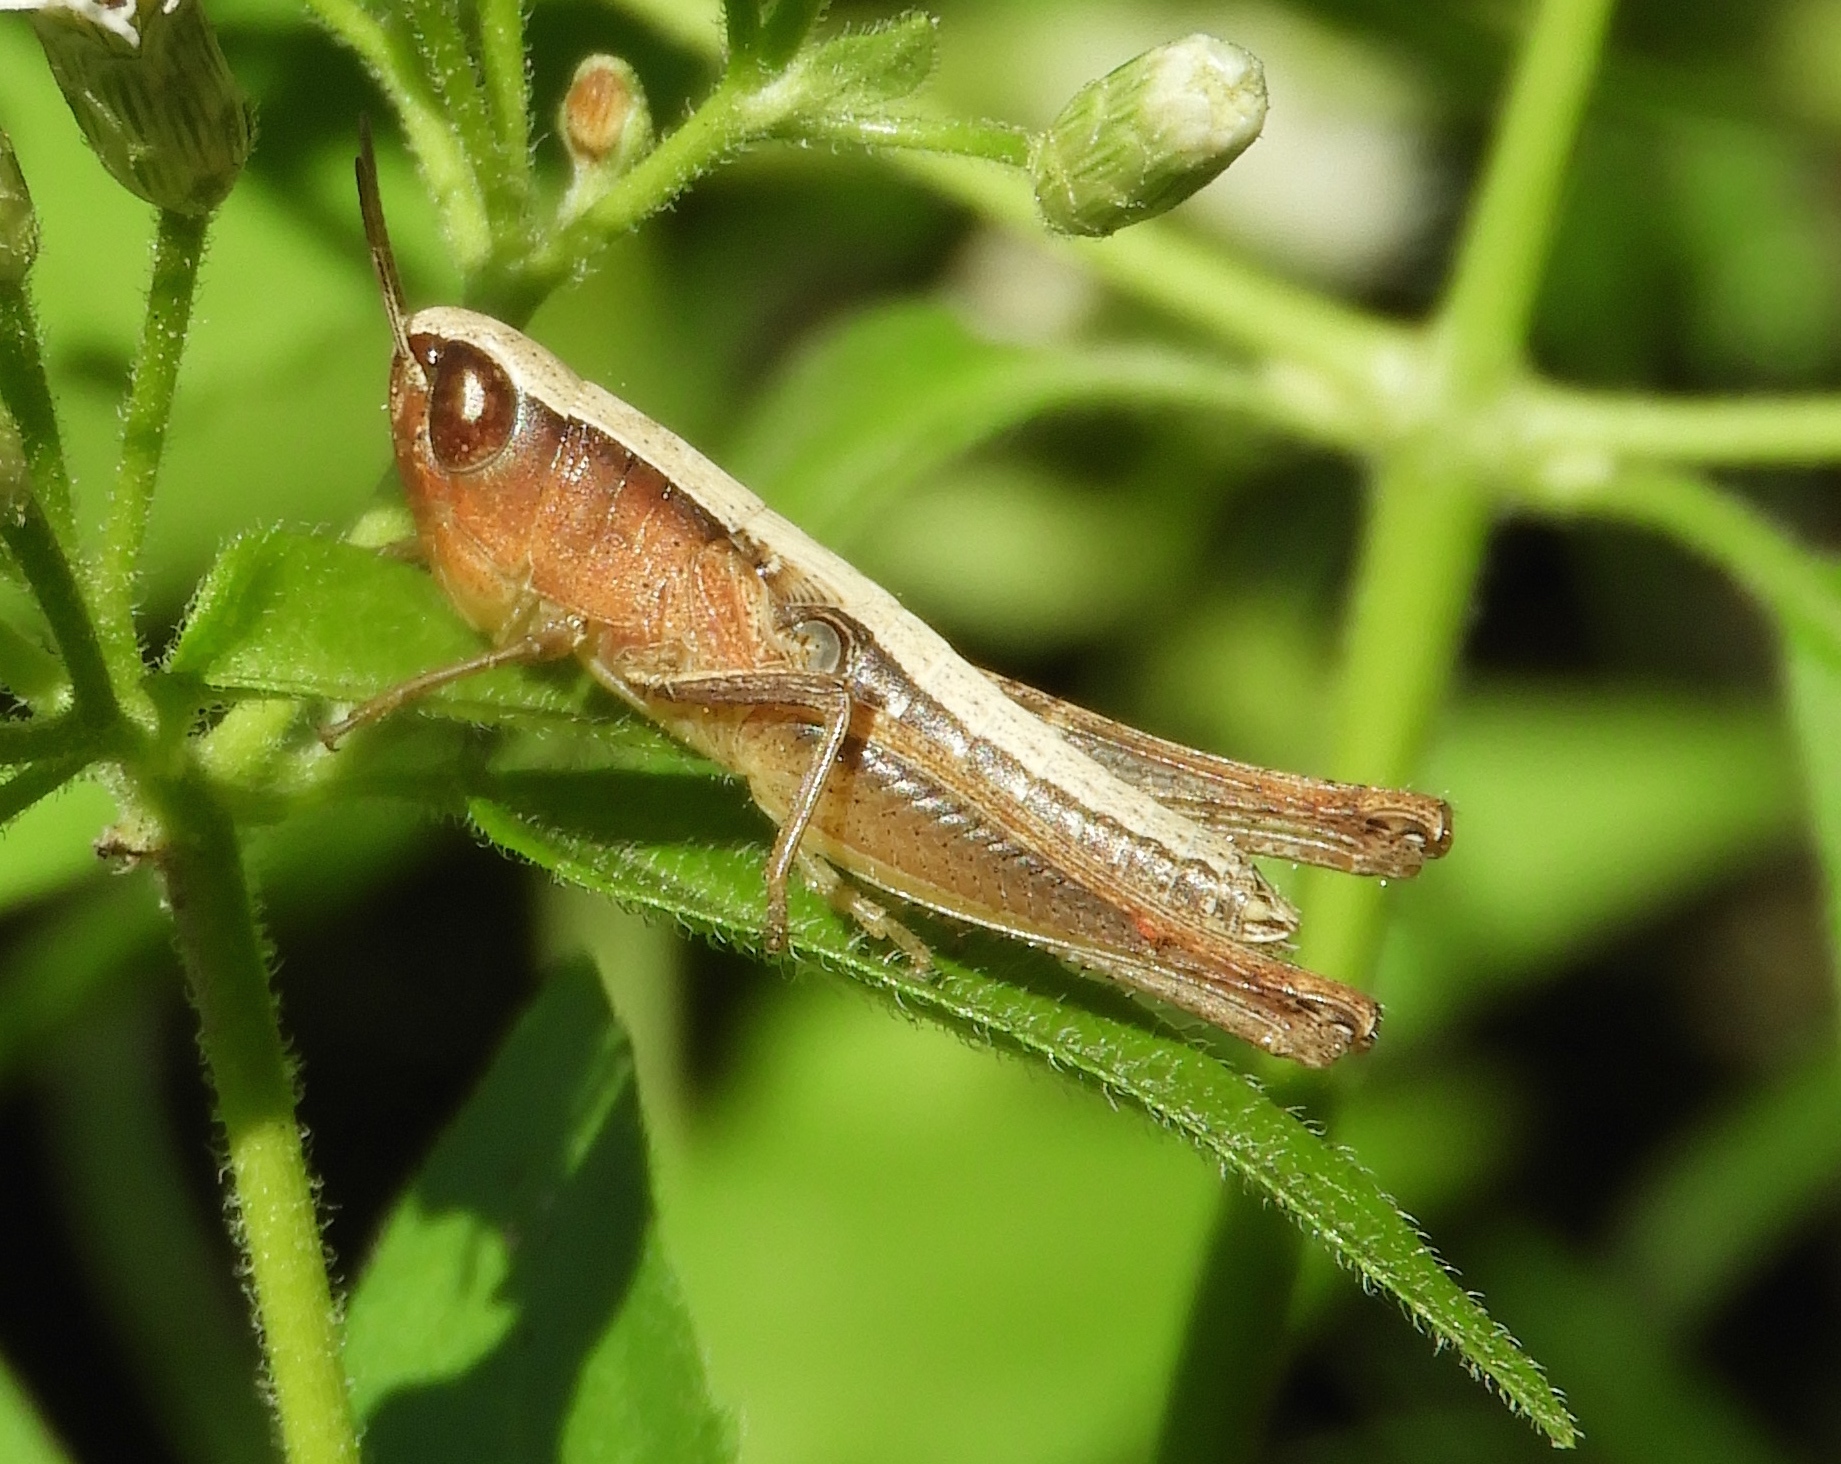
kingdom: Animalia
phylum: Arthropoda
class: Insecta
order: Orthoptera
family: Acrididae
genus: Amblytropidia
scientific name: Amblytropidia mysteca
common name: Brown winter grasshopper
